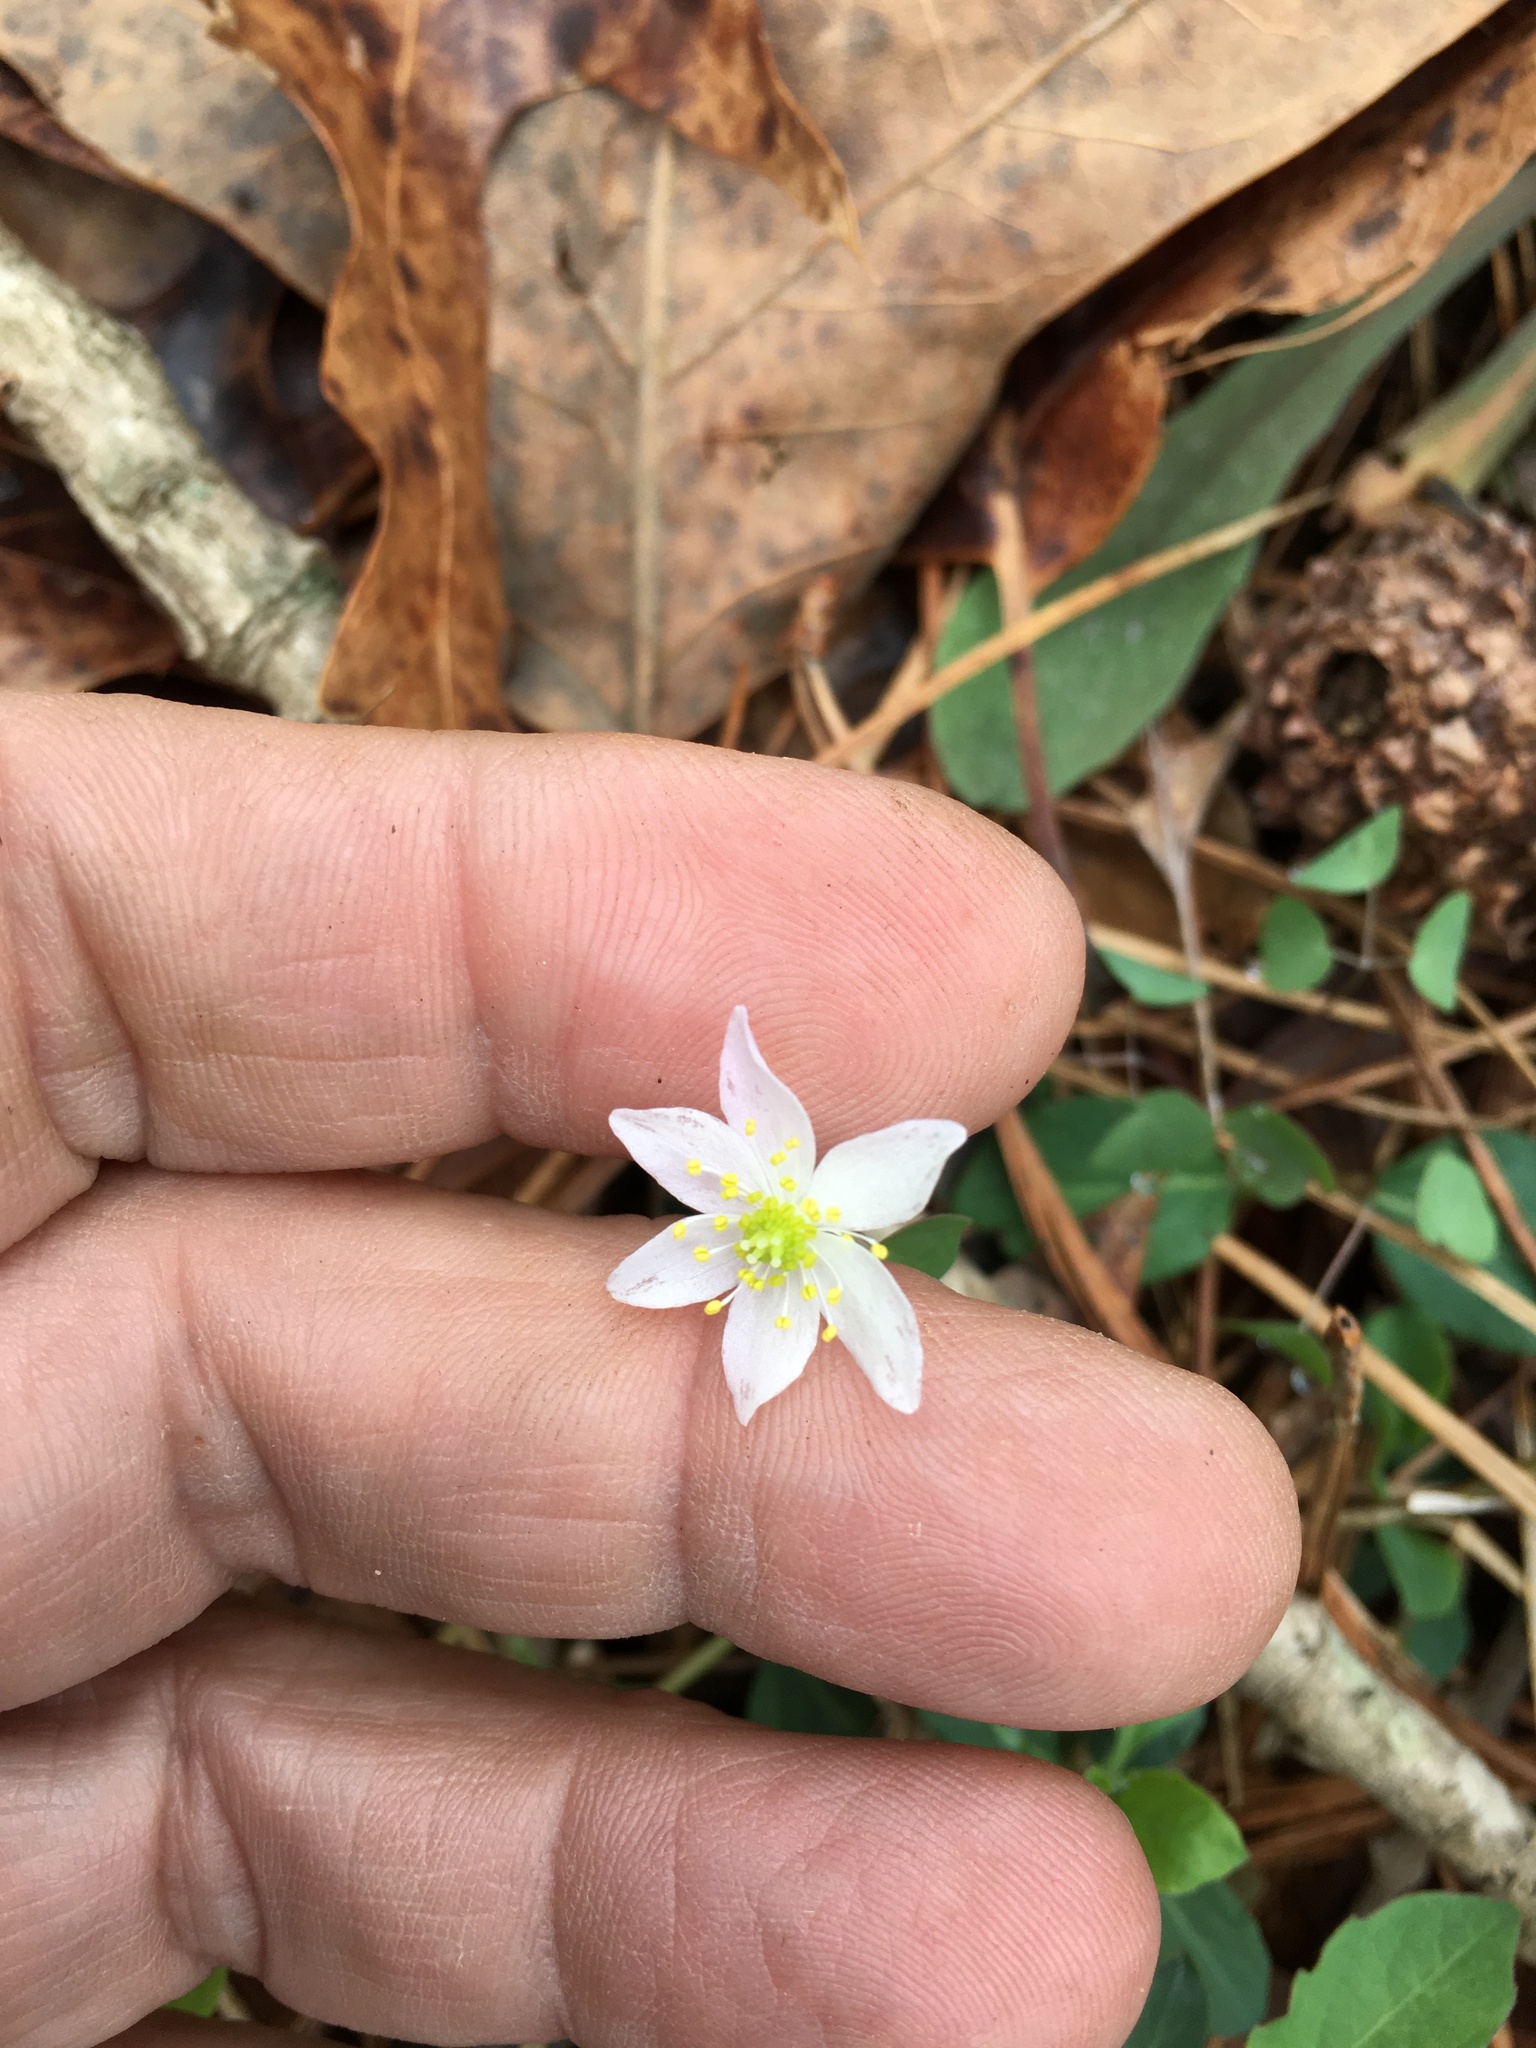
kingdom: Plantae
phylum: Tracheophyta
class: Magnoliopsida
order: Ranunculales
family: Ranunculaceae
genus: Thalictrum
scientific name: Thalictrum thalictroides
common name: Rue-anemone
